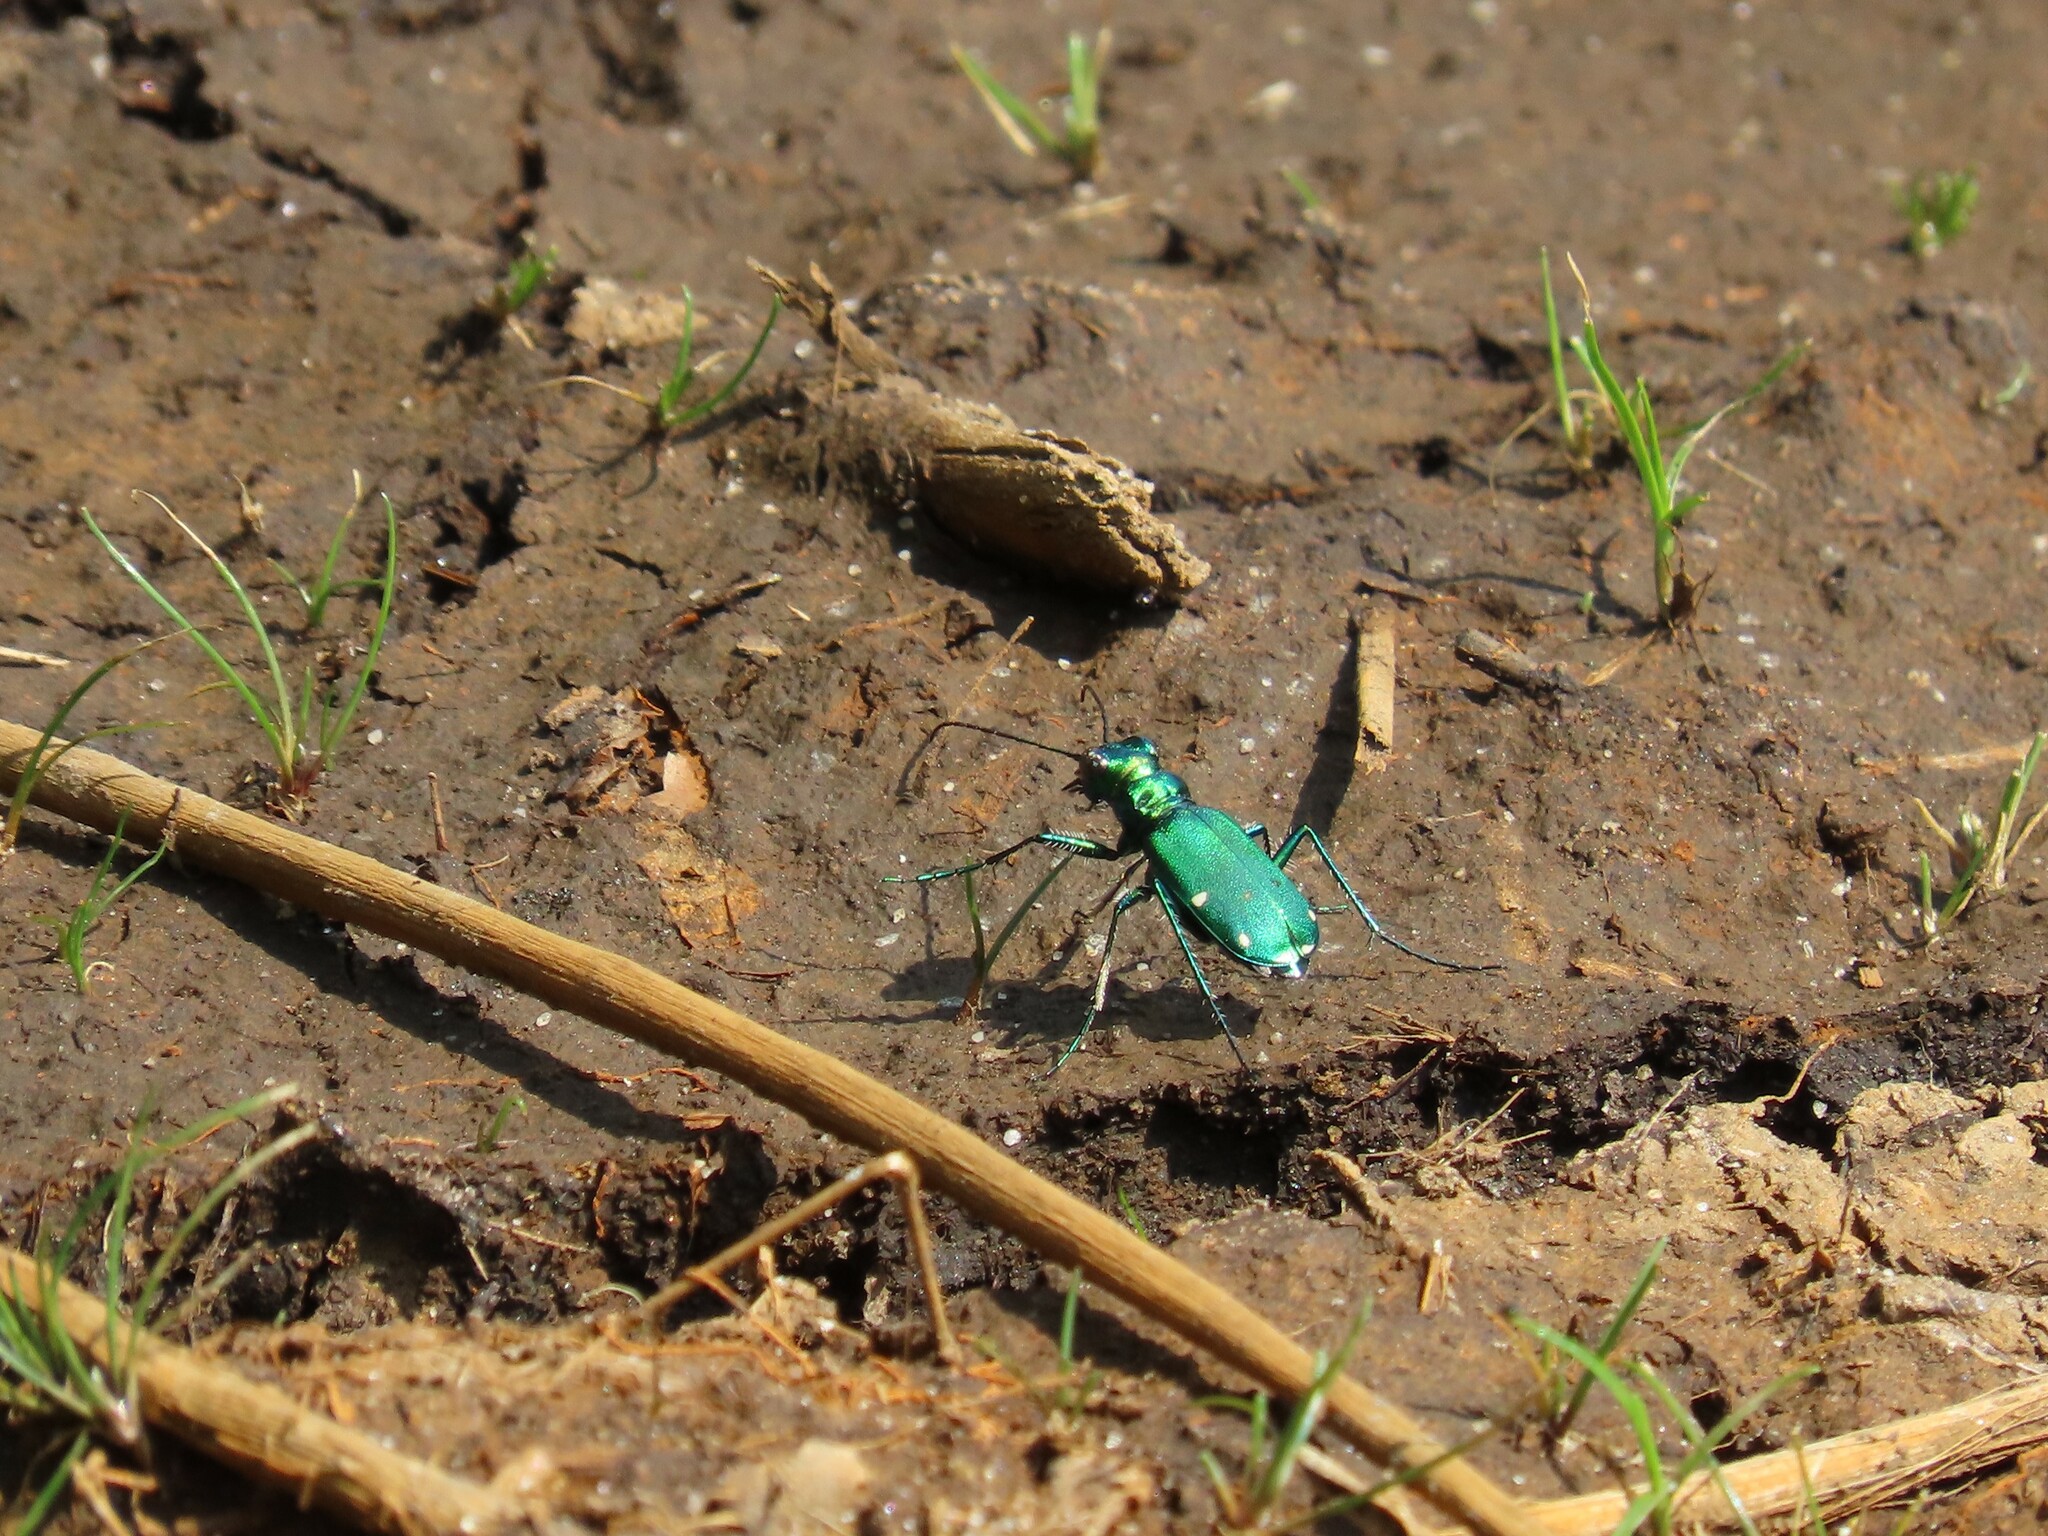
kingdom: Animalia
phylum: Arthropoda
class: Insecta
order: Coleoptera
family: Carabidae
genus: Cicindela
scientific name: Cicindela sexguttata
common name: Six-spotted tiger beetle
